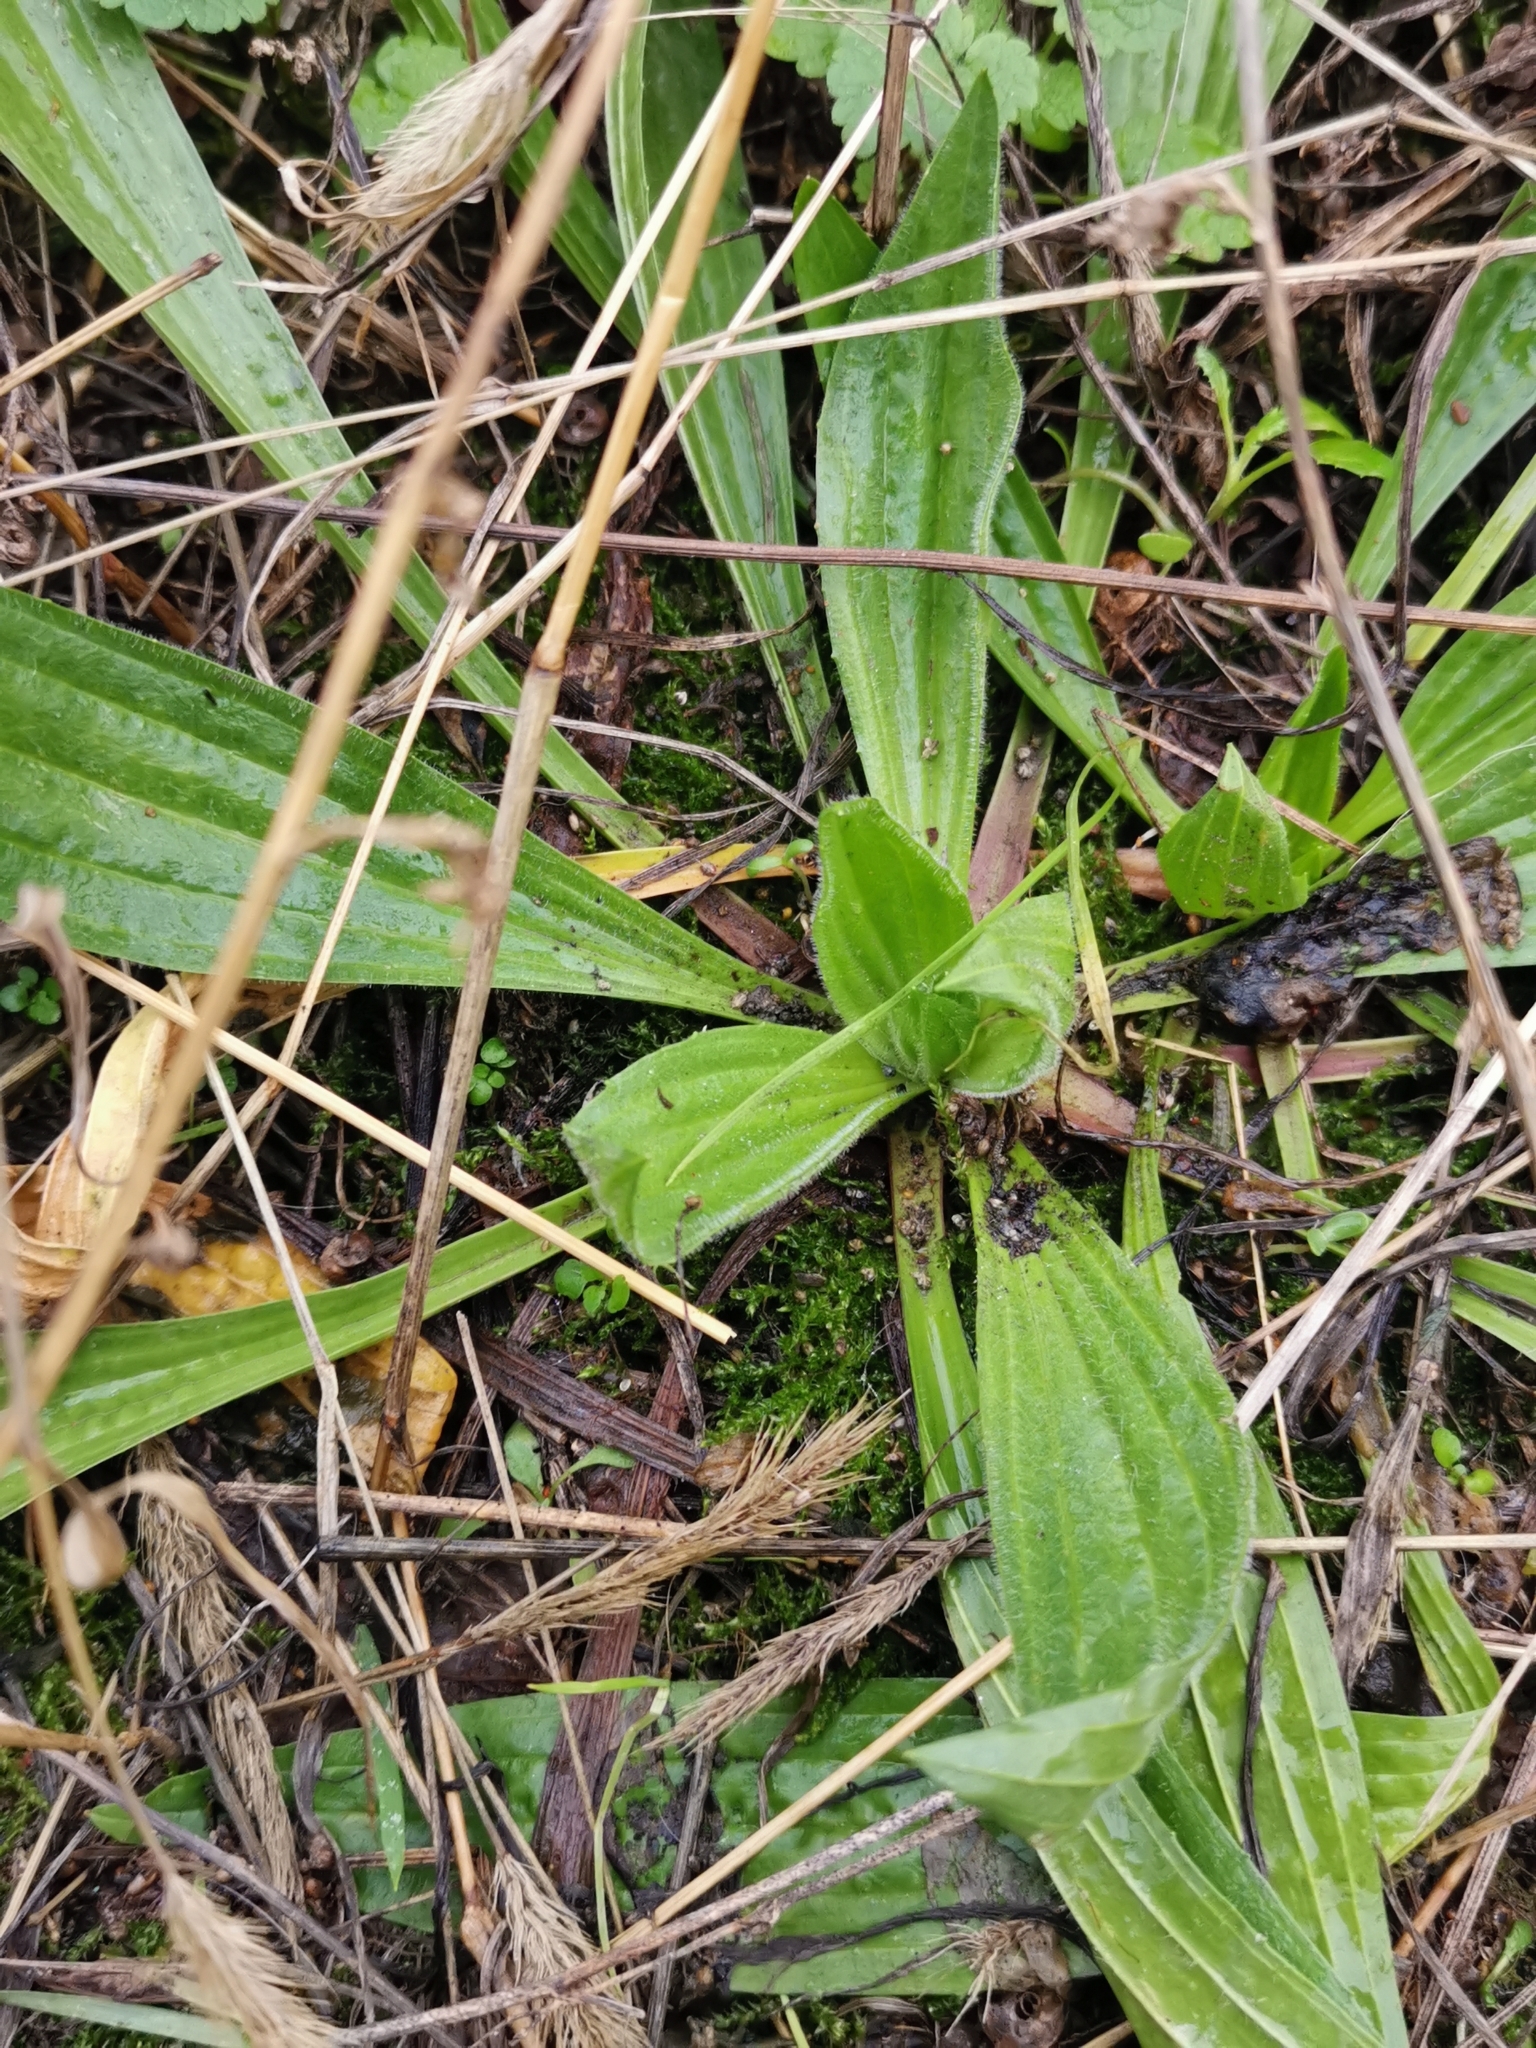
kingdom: Plantae
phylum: Tracheophyta
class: Magnoliopsida
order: Lamiales
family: Plantaginaceae
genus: Plantago
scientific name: Plantago lanceolata
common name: Ribwort plantain
